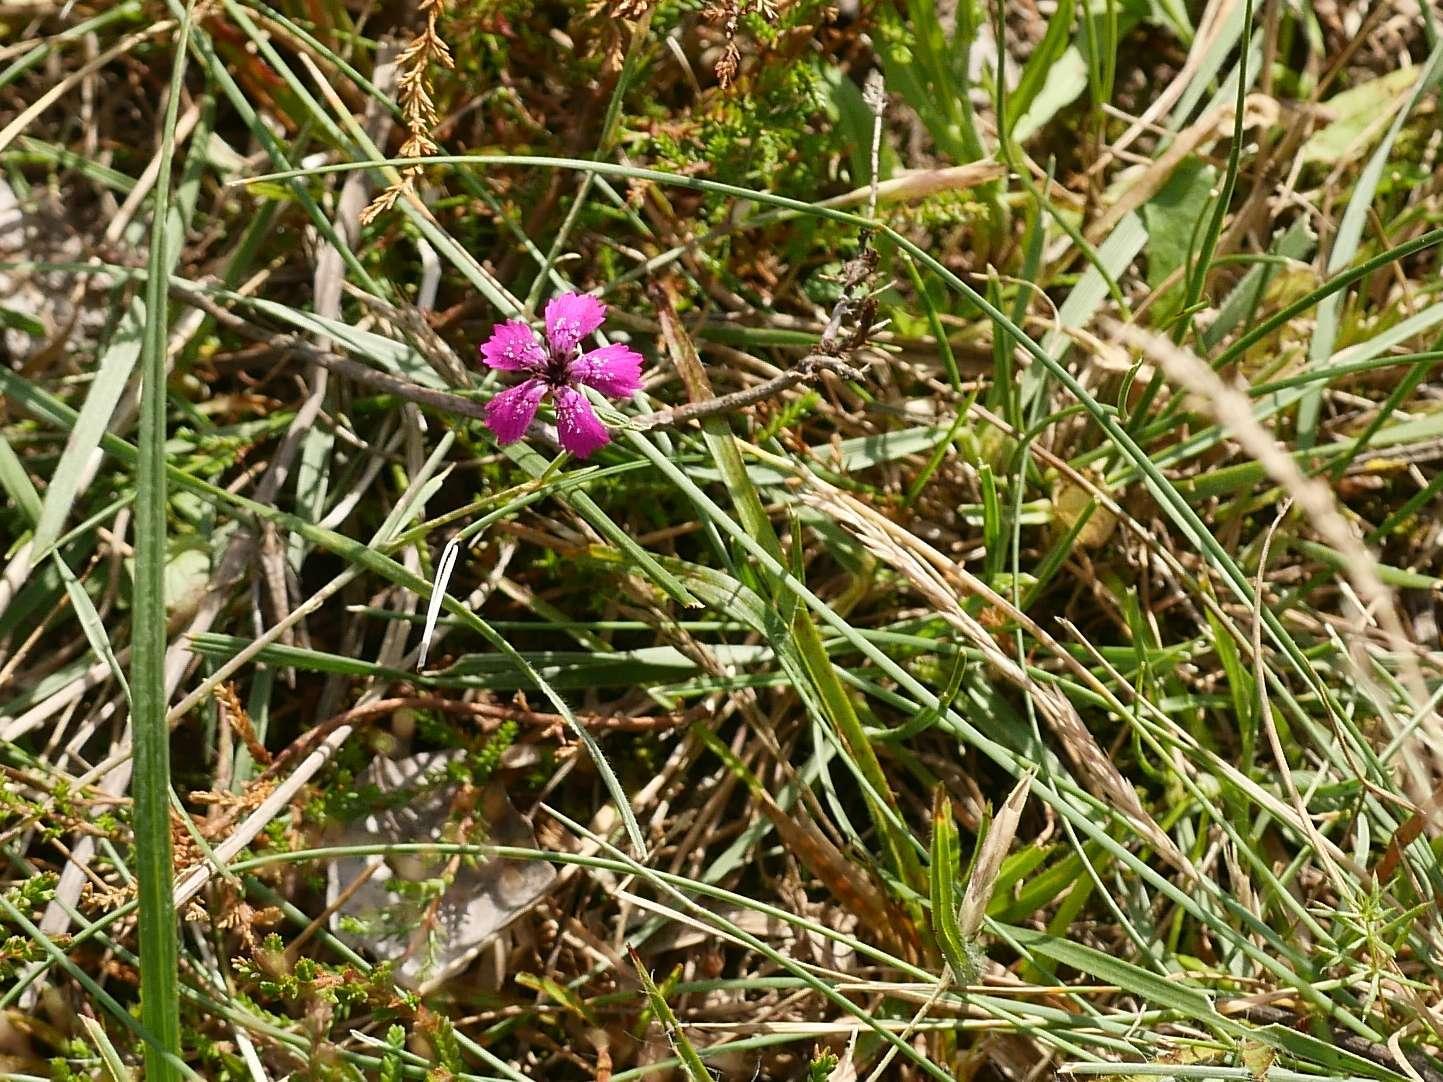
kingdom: Plantae
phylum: Tracheophyta
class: Magnoliopsida
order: Caryophyllales
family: Caryophyllaceae
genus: Dianthus
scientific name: Dianthus deltoides
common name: Maiden pink
